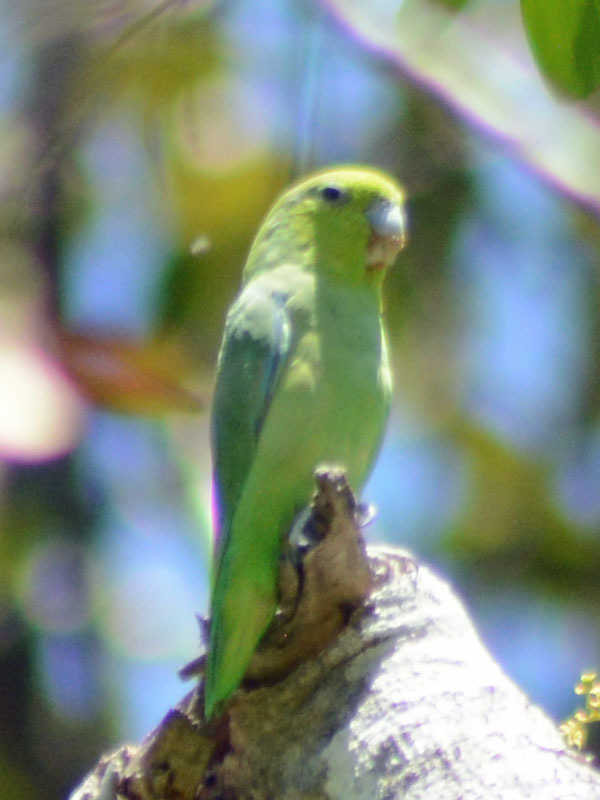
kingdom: Animalia
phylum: Chordata
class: Aves
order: Psittaciformes
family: Psittacidae
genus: Forpus
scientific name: Forpus cyanopygius
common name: Mexican parrotlet
